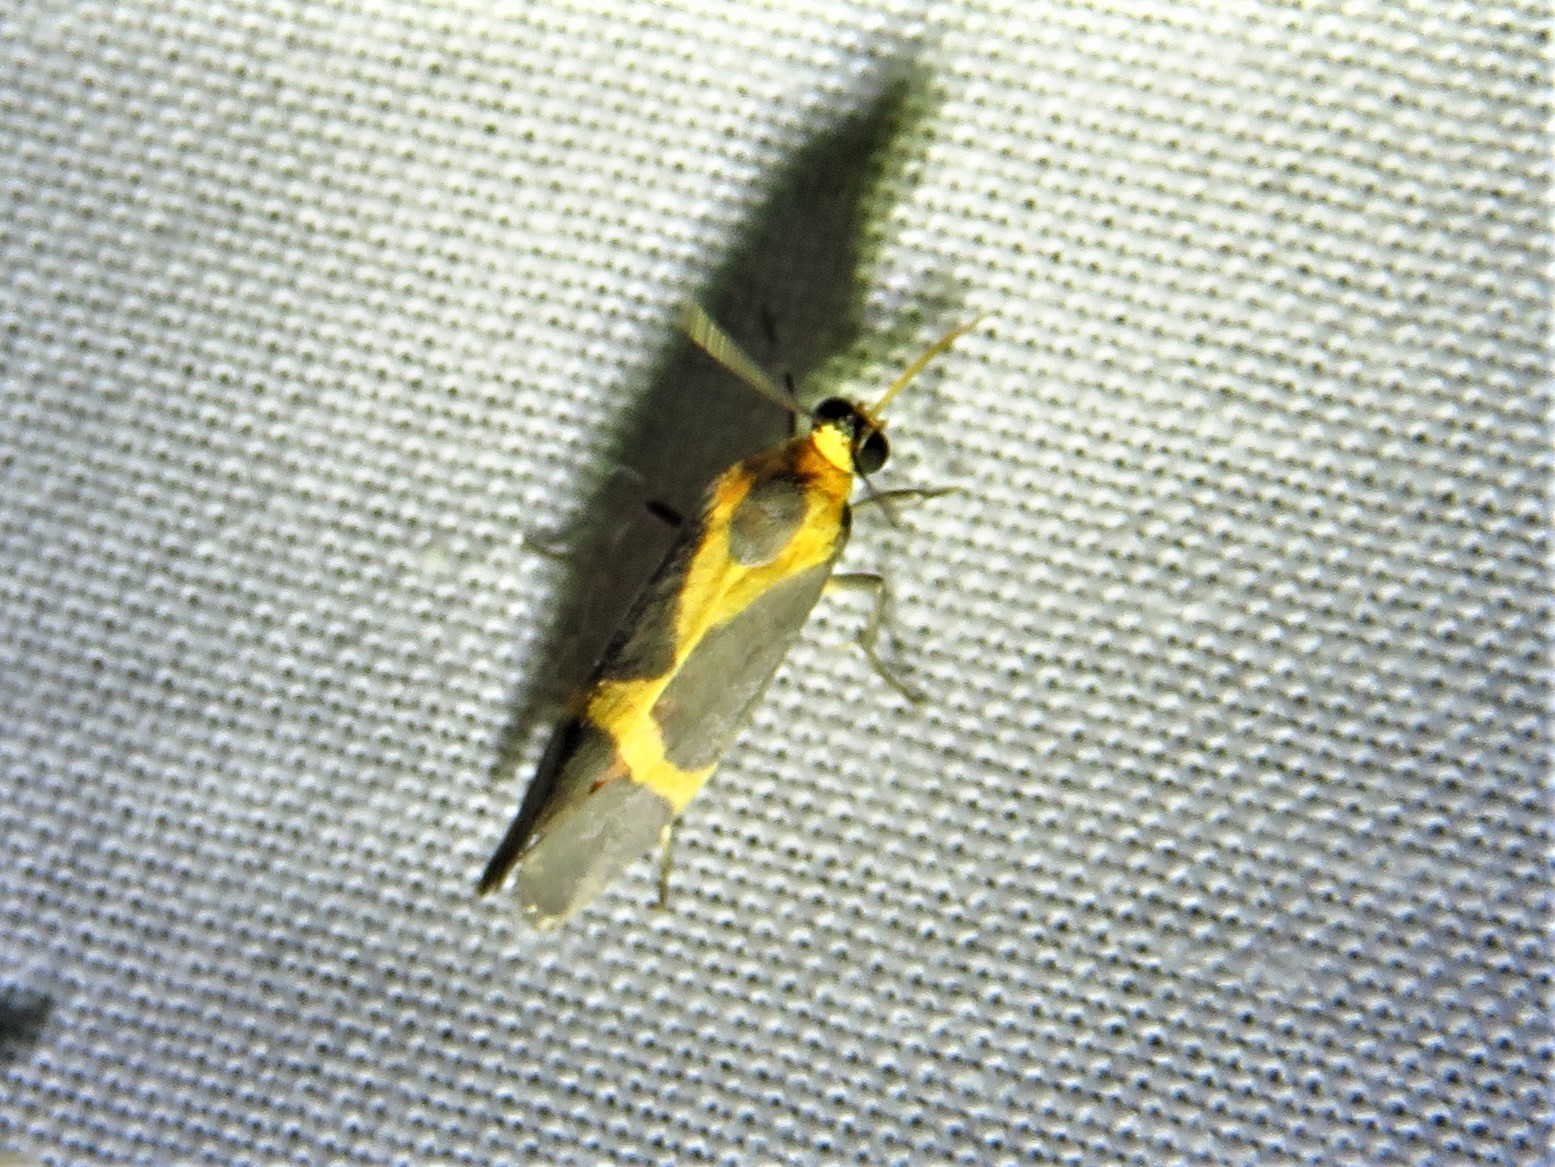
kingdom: Animalia
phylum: Arthropoda
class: Insecta
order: Lepidoptera
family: Erebidae
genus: Cisthene
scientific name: Cisthene tenuifascia
